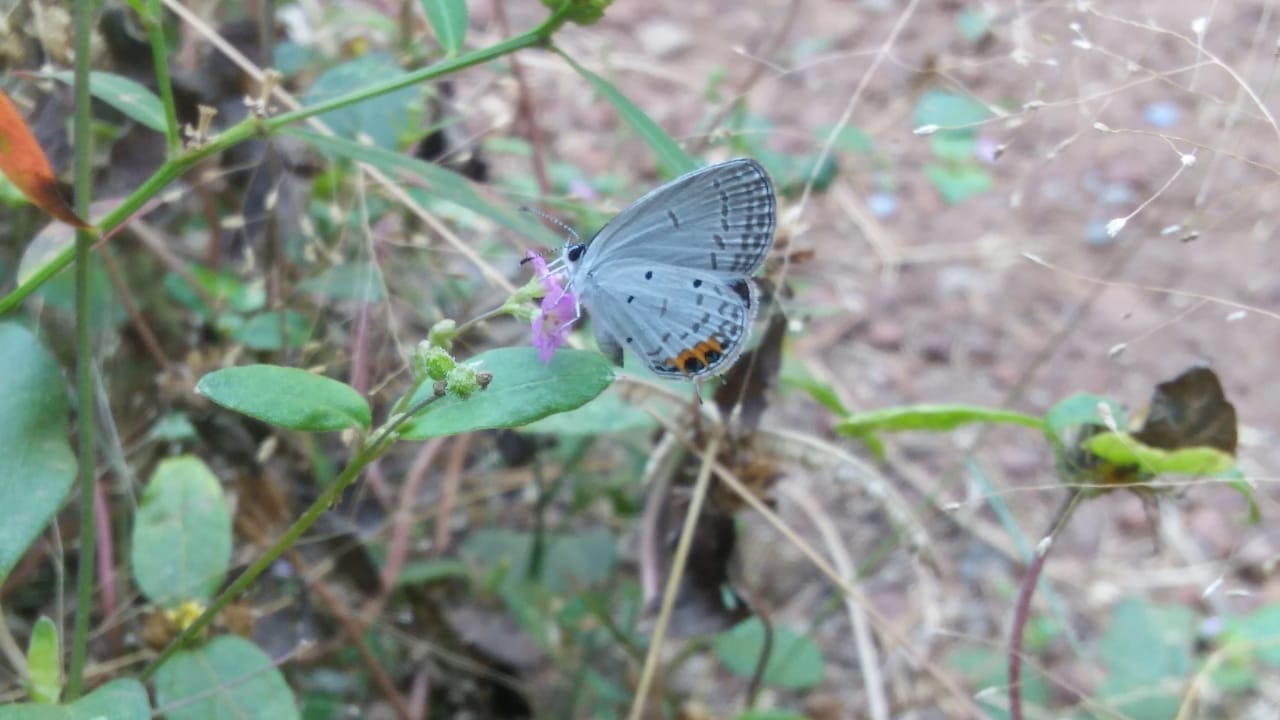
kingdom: Animalia
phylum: Arthropoda
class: Insecta
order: Lepidoptera
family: Lycaenidae
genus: Everes
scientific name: Everes lacturnus
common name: Orange-tipped pea-blue
